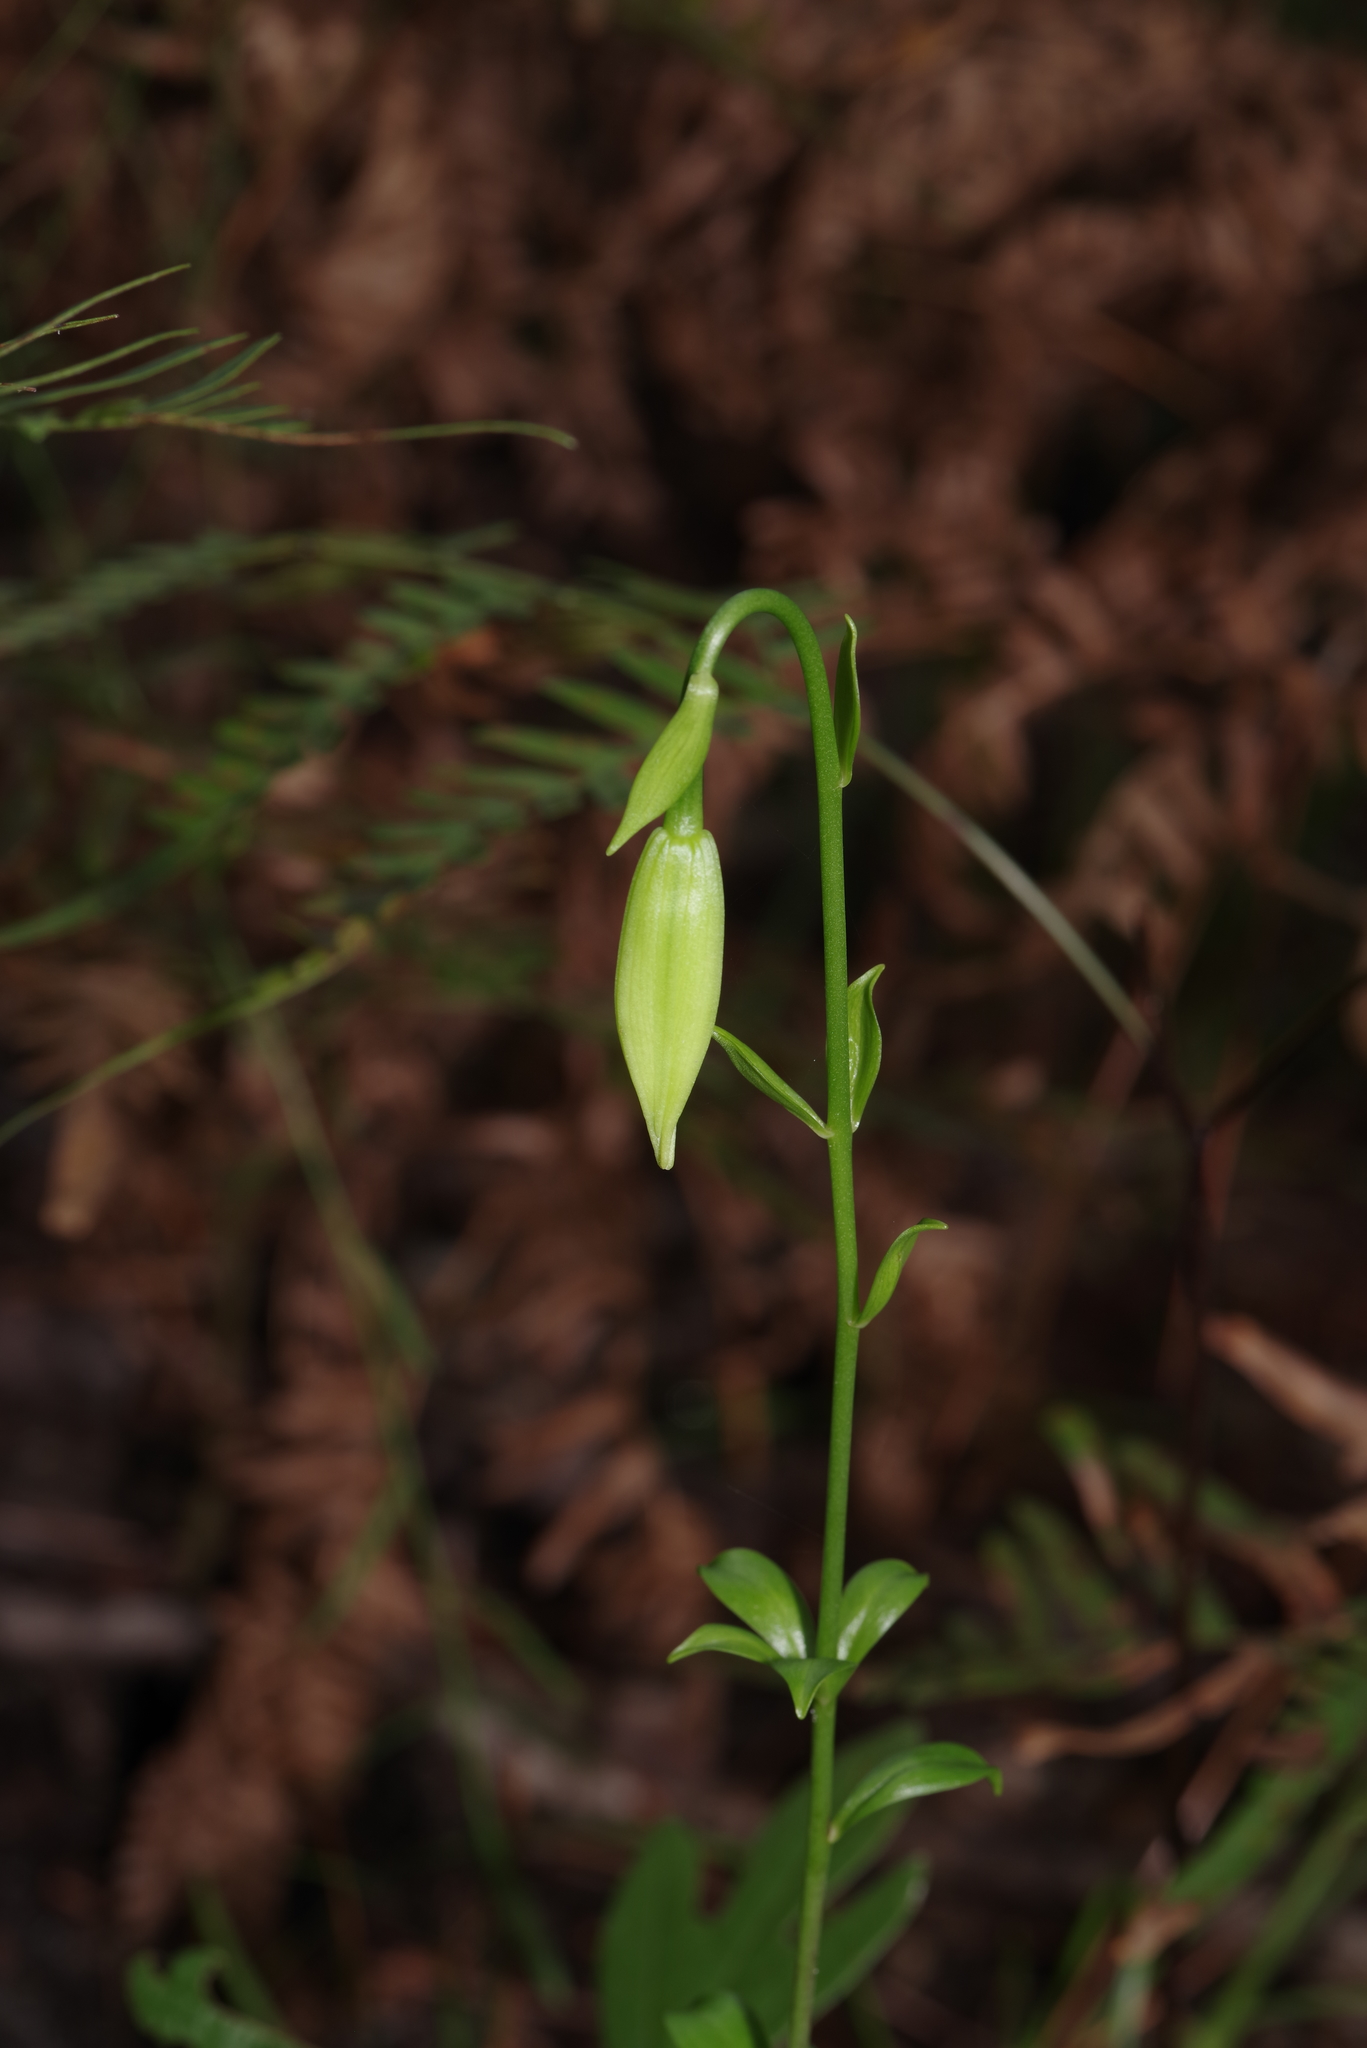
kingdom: Plantae
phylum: Tracheophyta
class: Liliopsida
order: Liliales
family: Liliaceae
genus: Lilium
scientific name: Lilium michauxii
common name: Carolina lily
